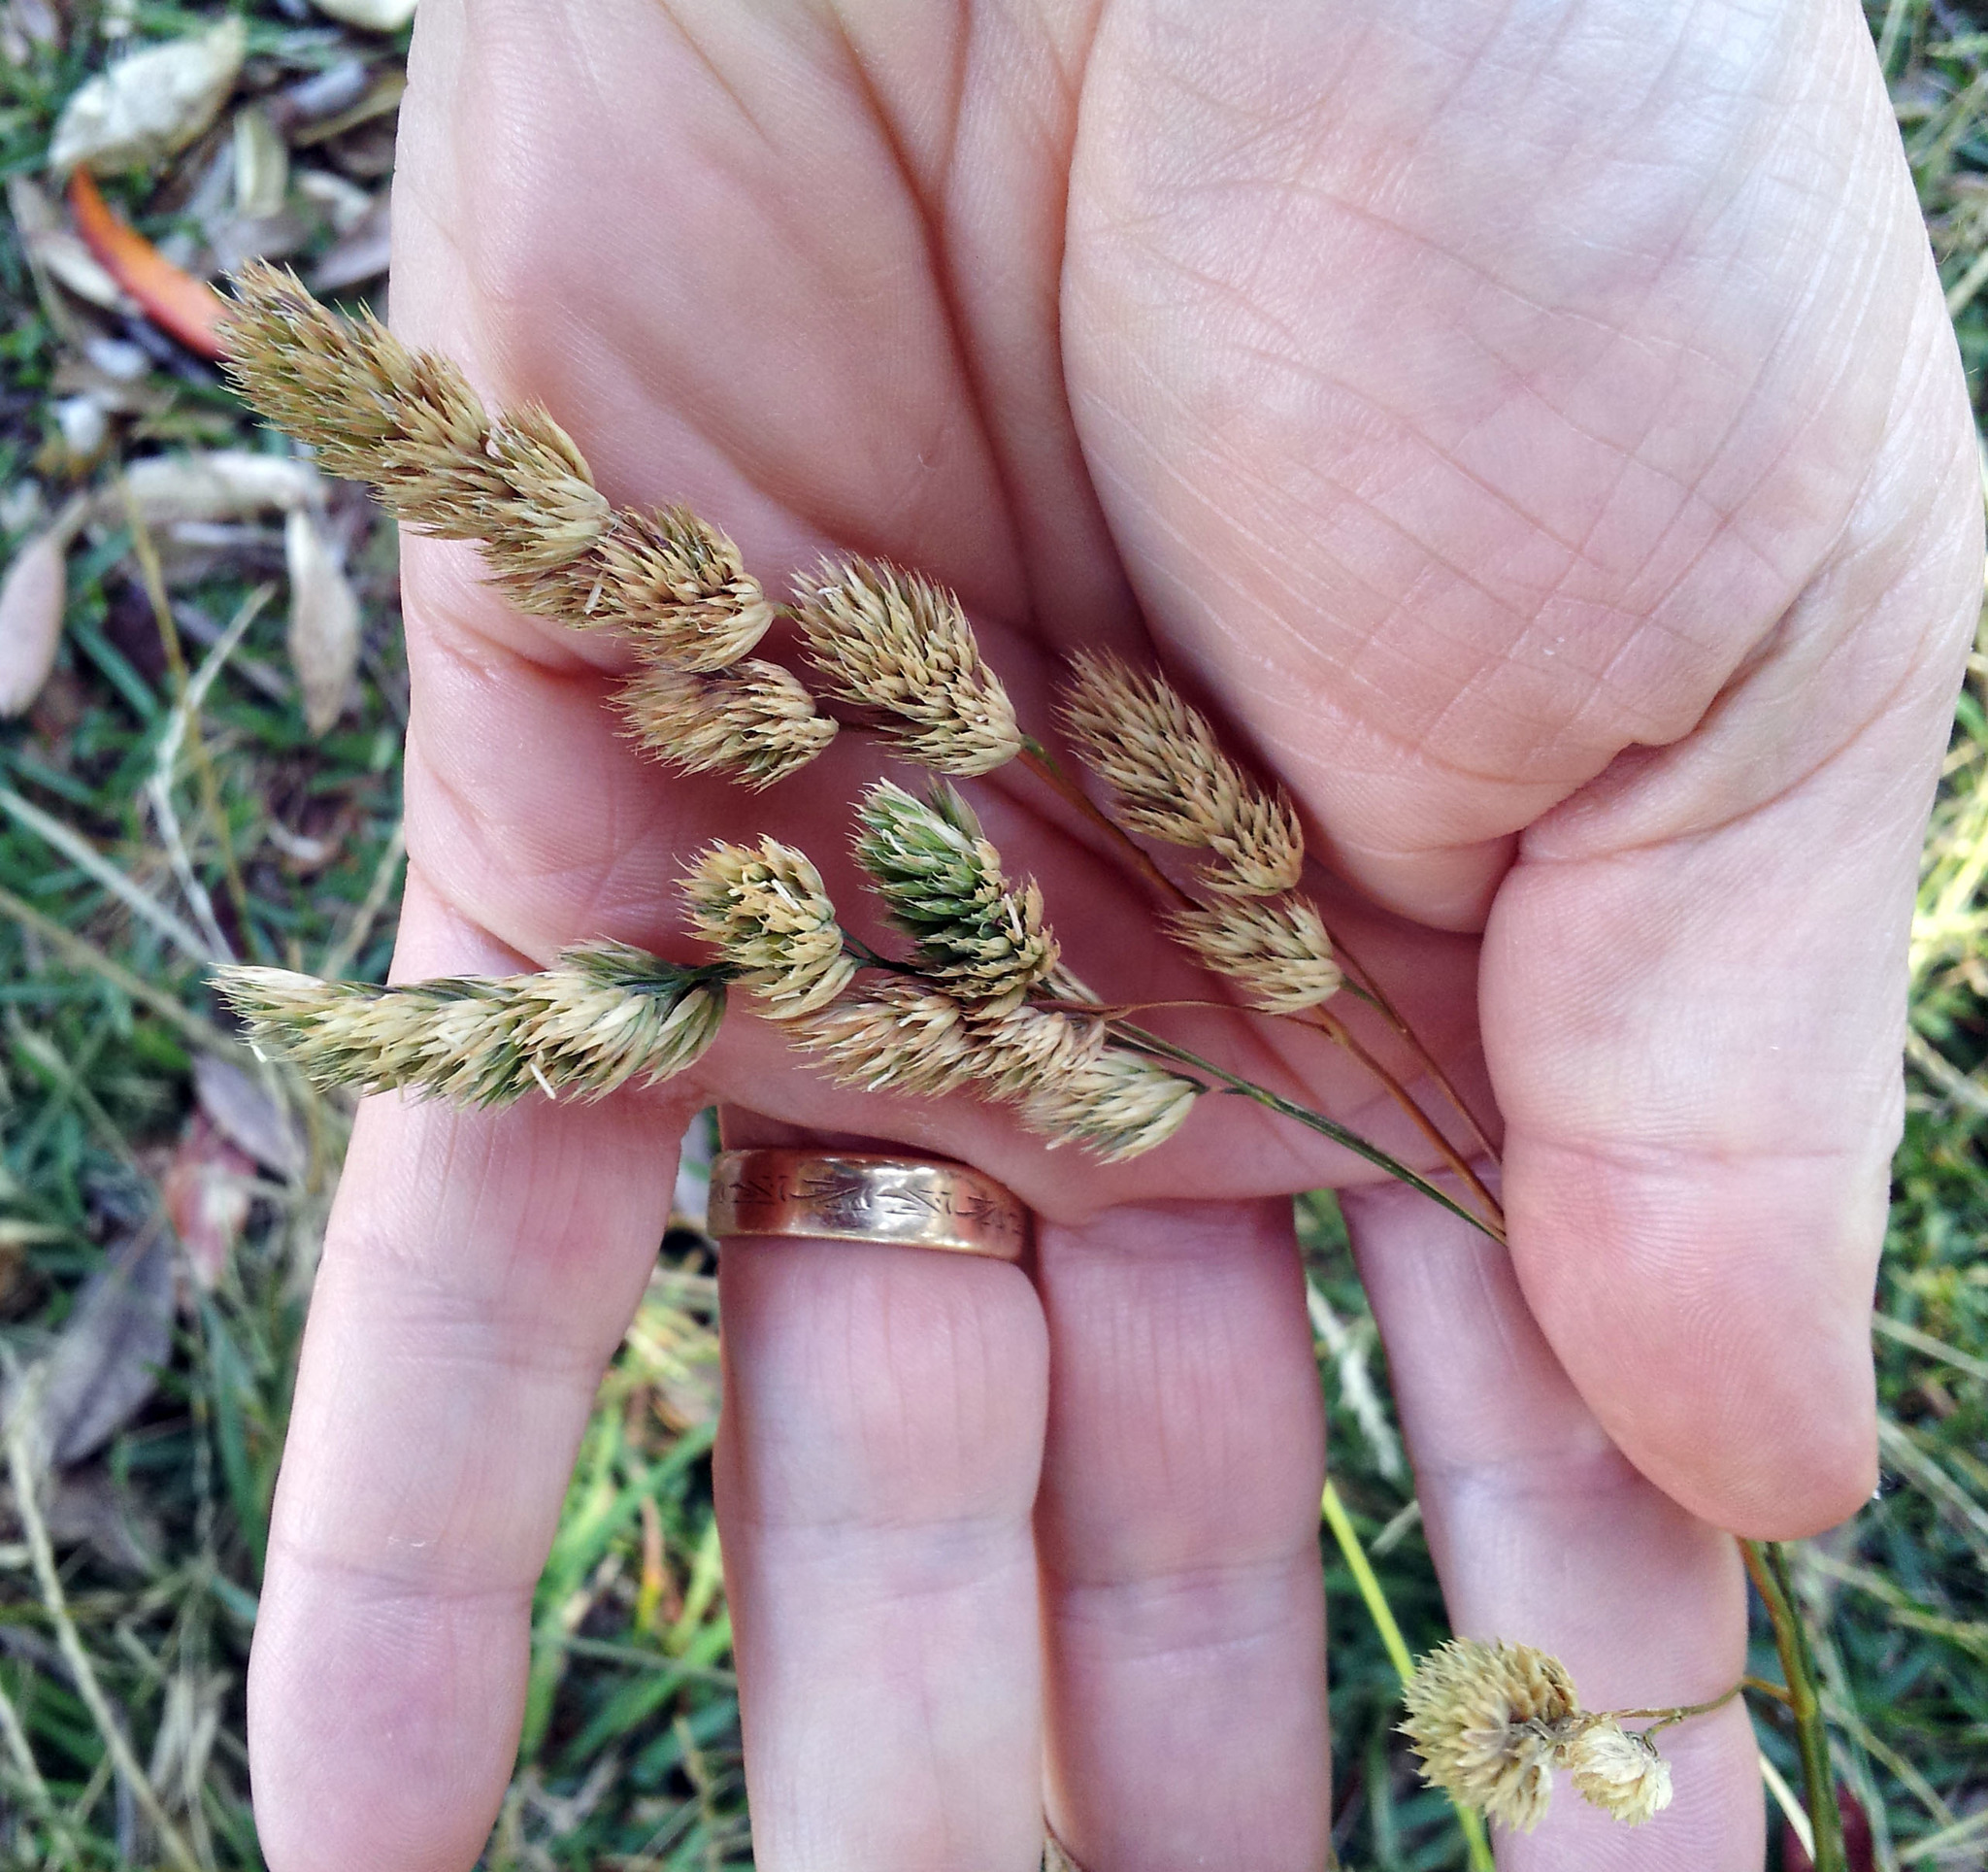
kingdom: Plantae
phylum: Tracheophyta
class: Liliopsida
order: Poales
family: Poaceae
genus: Dactylis
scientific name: Dactylis glomerata
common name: Orchardgrass
